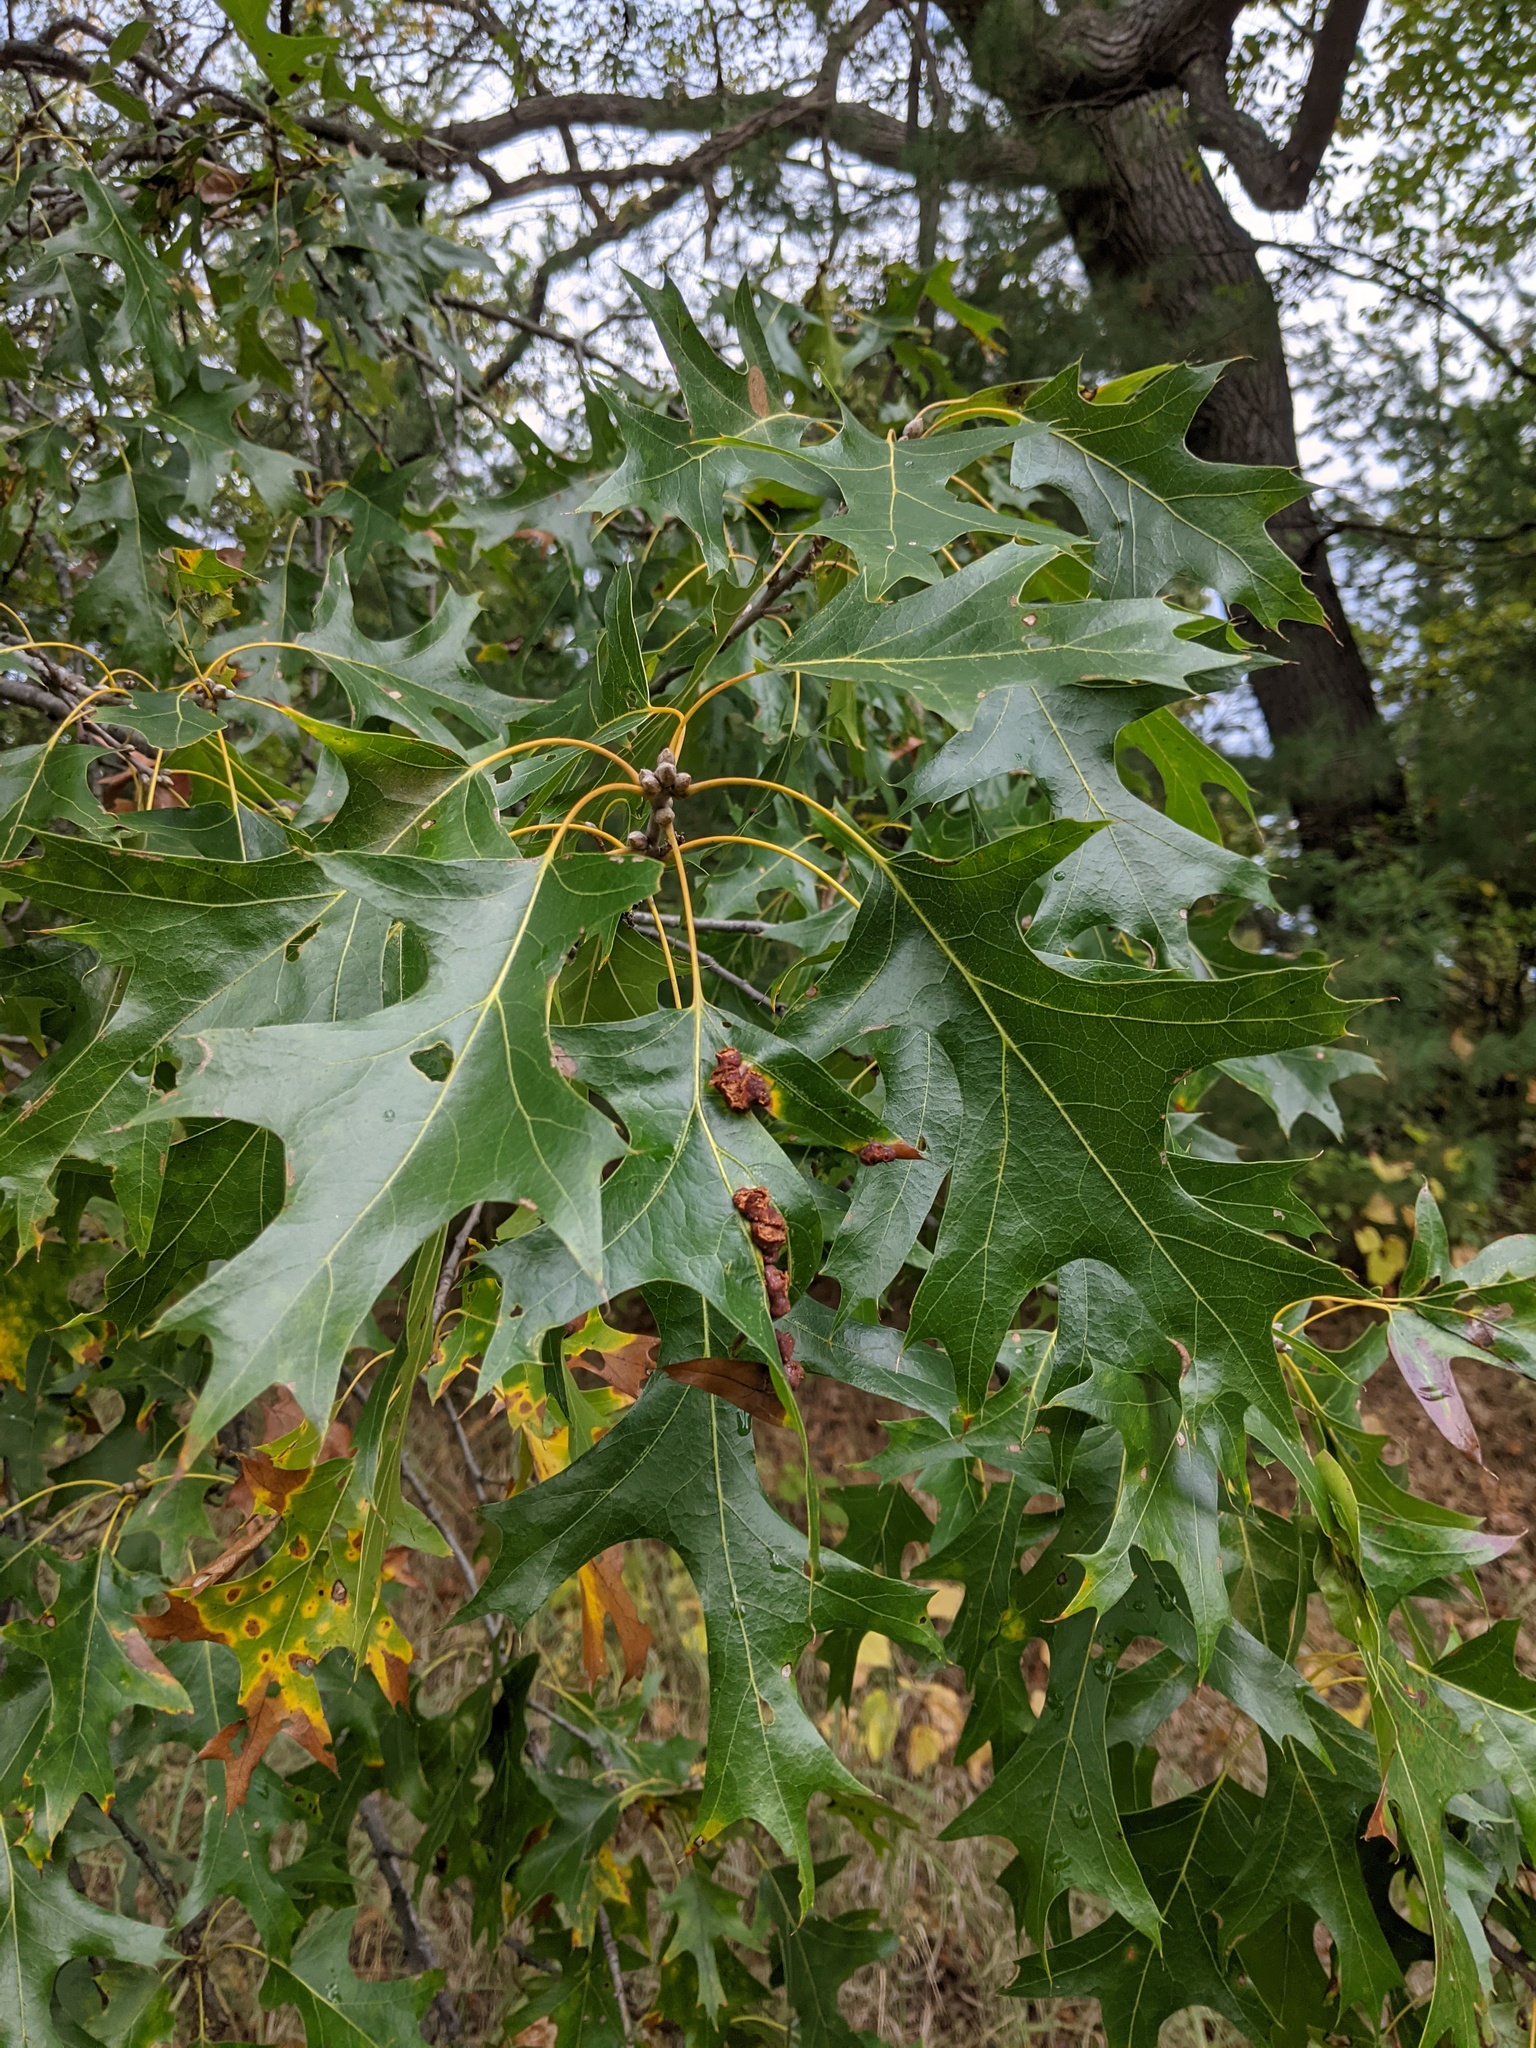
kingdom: Plantae
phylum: Tracheophyta
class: Magnoliopsida
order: Fagales
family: Fagaceae
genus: Quercus
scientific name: Quercus velutina
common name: Black oak
